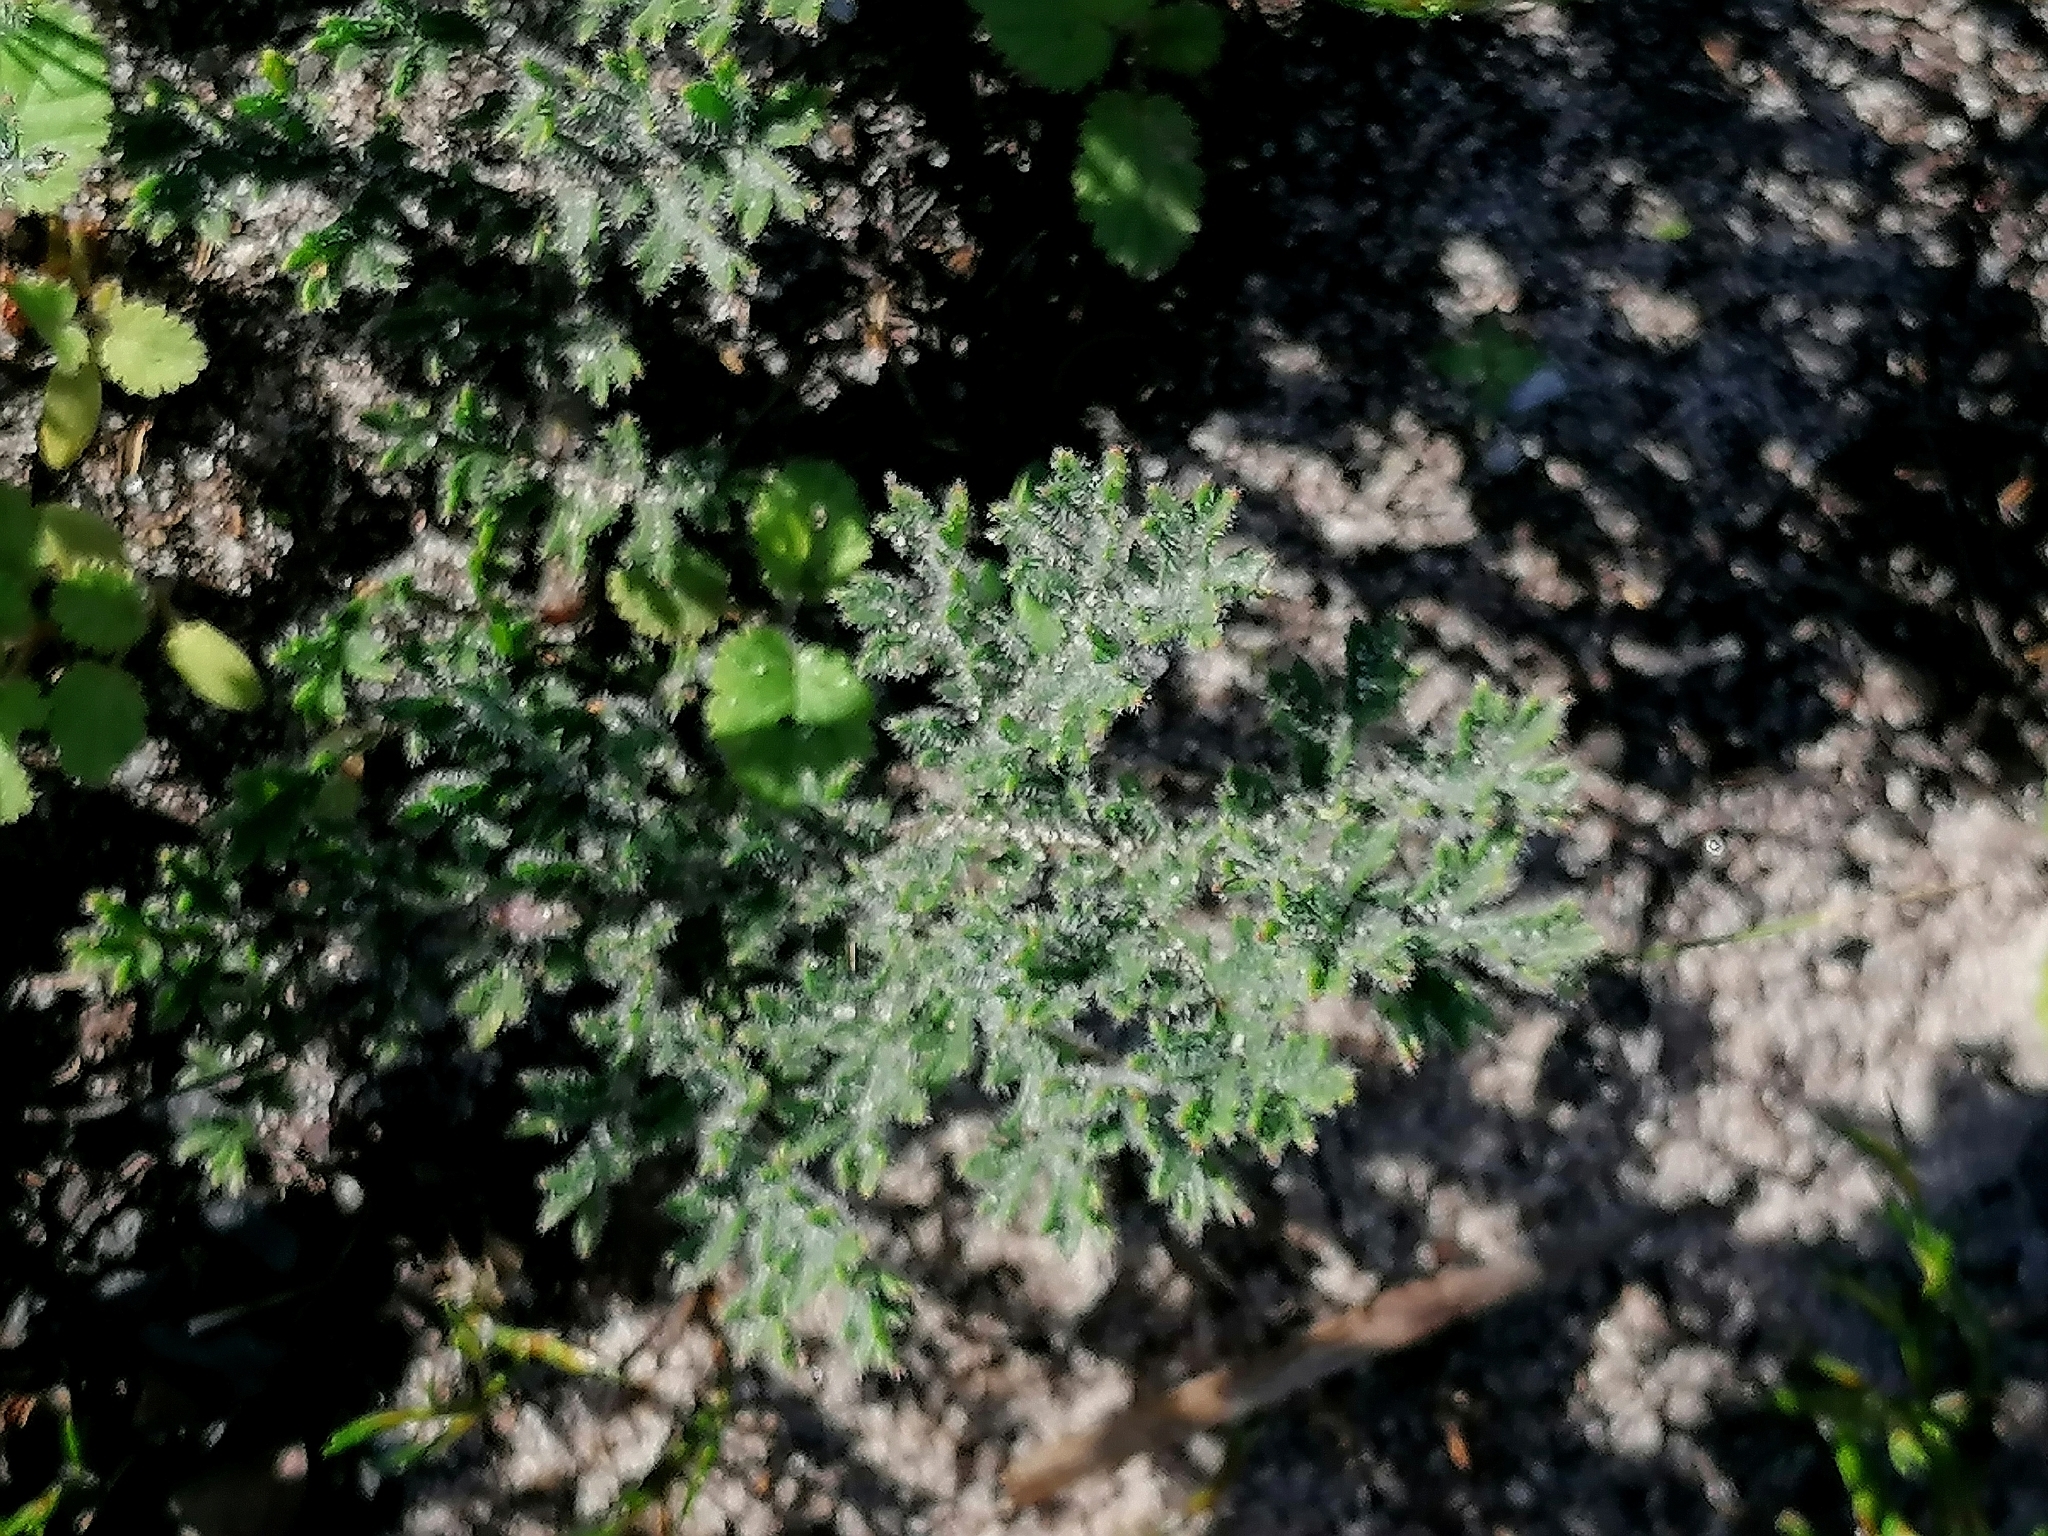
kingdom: Plantae
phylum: Tracheophyta
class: Magnoliopsida
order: Geraniales
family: Geraniaceae
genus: Pelargonium
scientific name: Pelargonium triste
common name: Night-scent pelargonium
